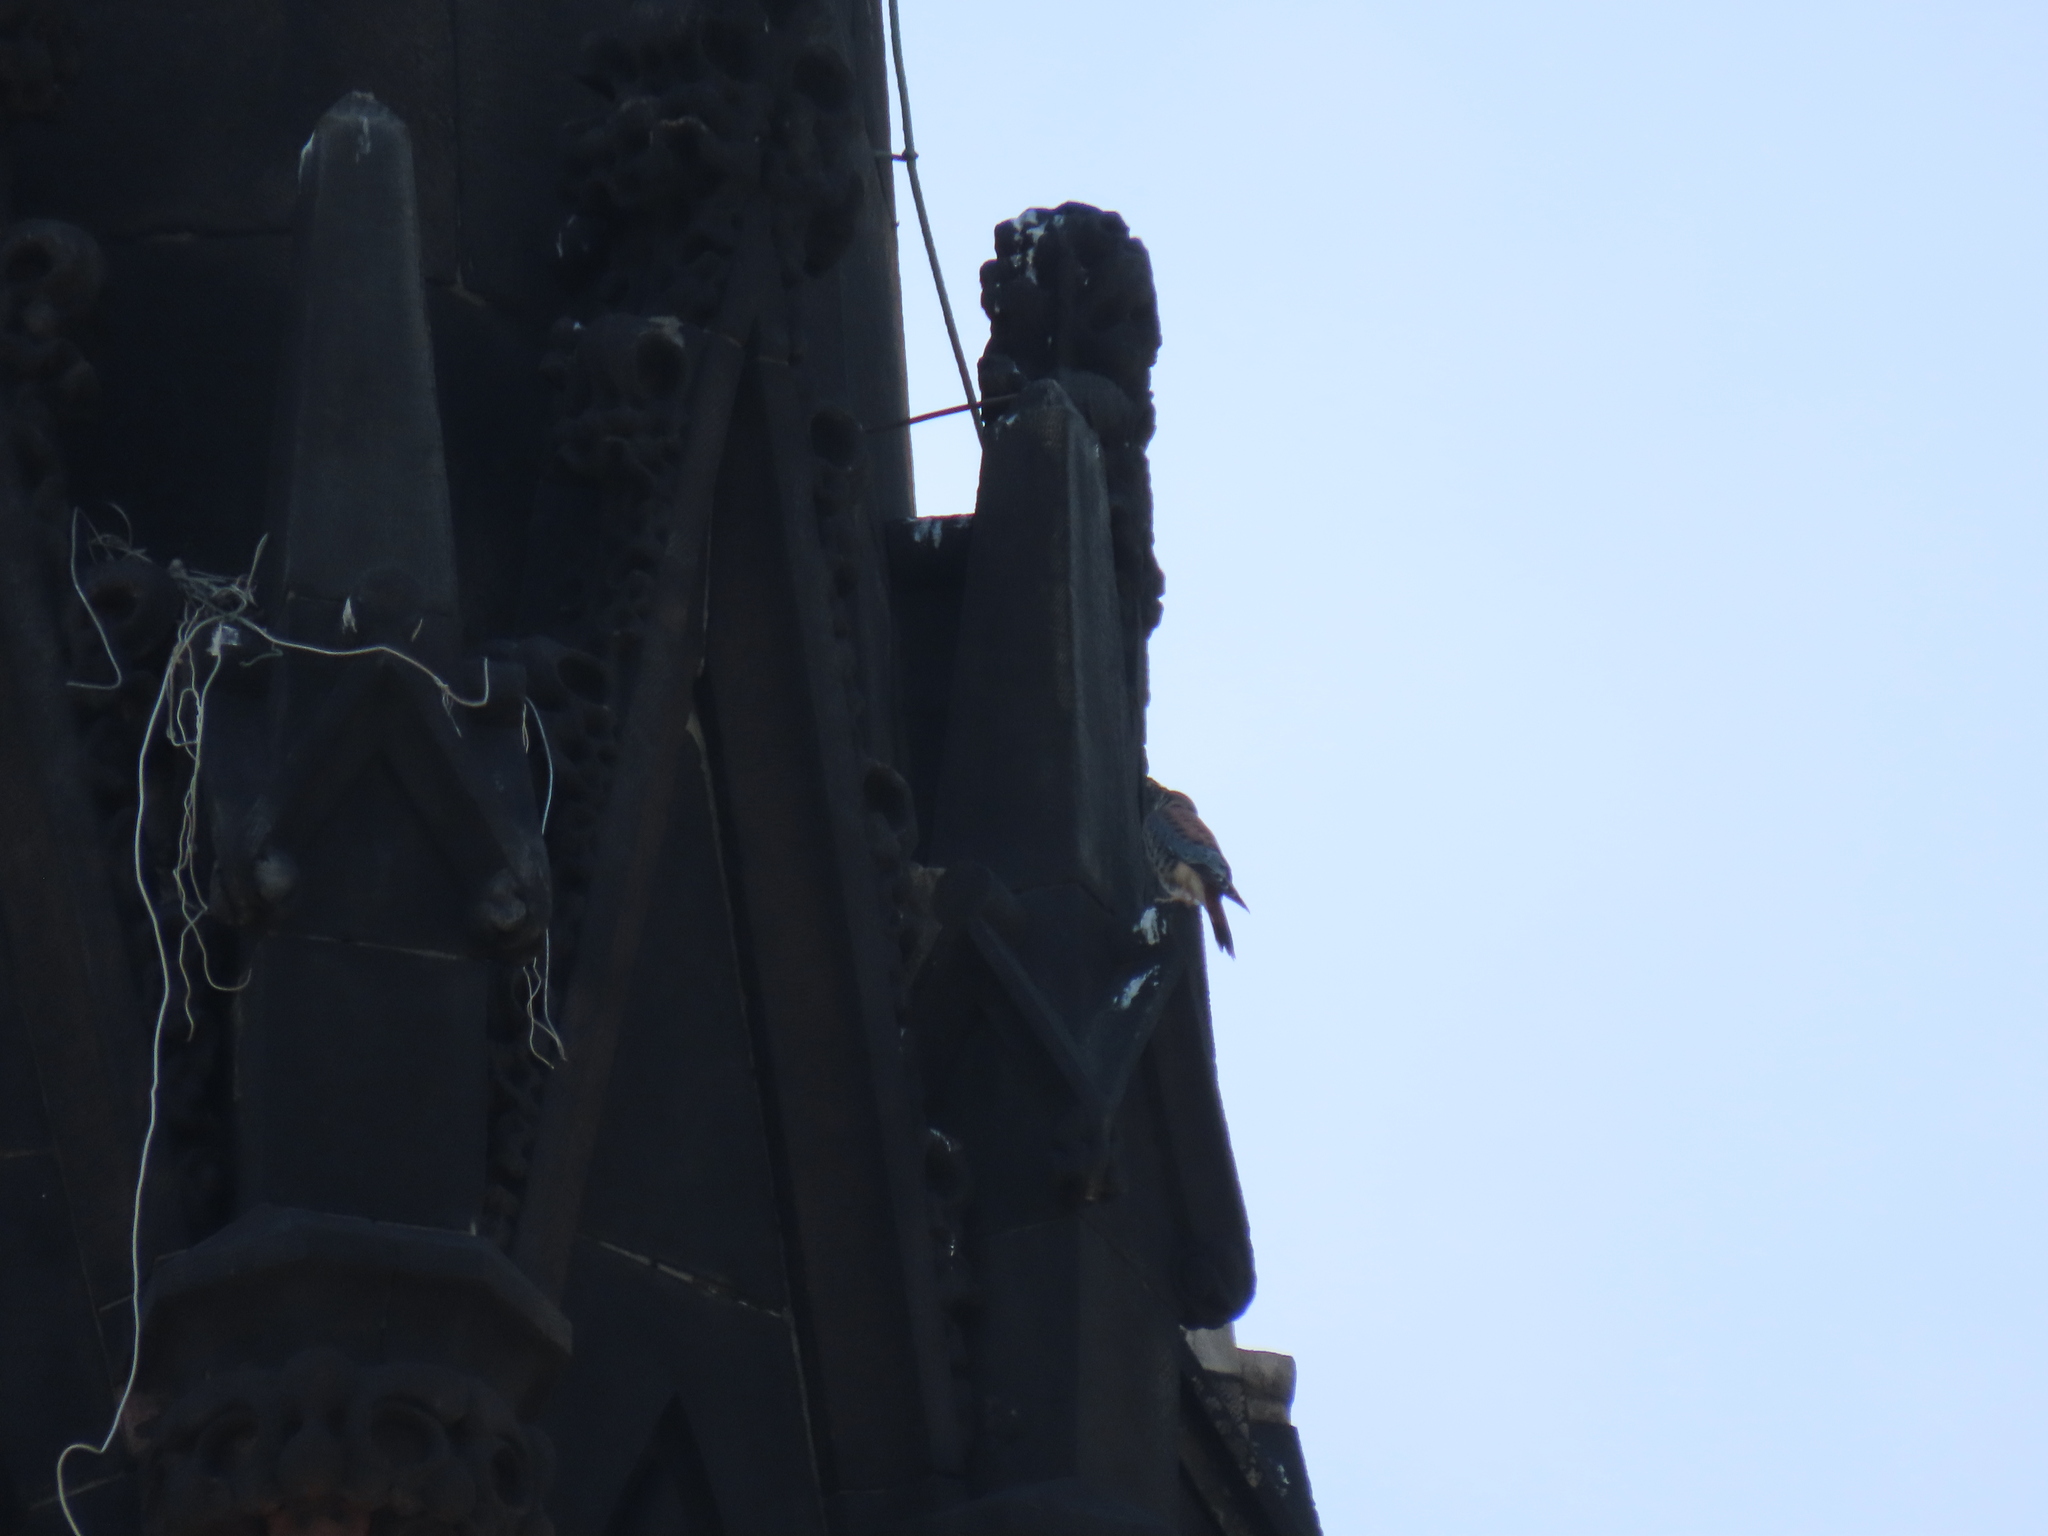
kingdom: Animalia
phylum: Chordata
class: Aves
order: Falconiformes
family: Falconidae
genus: Falco
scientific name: Falco sparverius
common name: American kestrel
